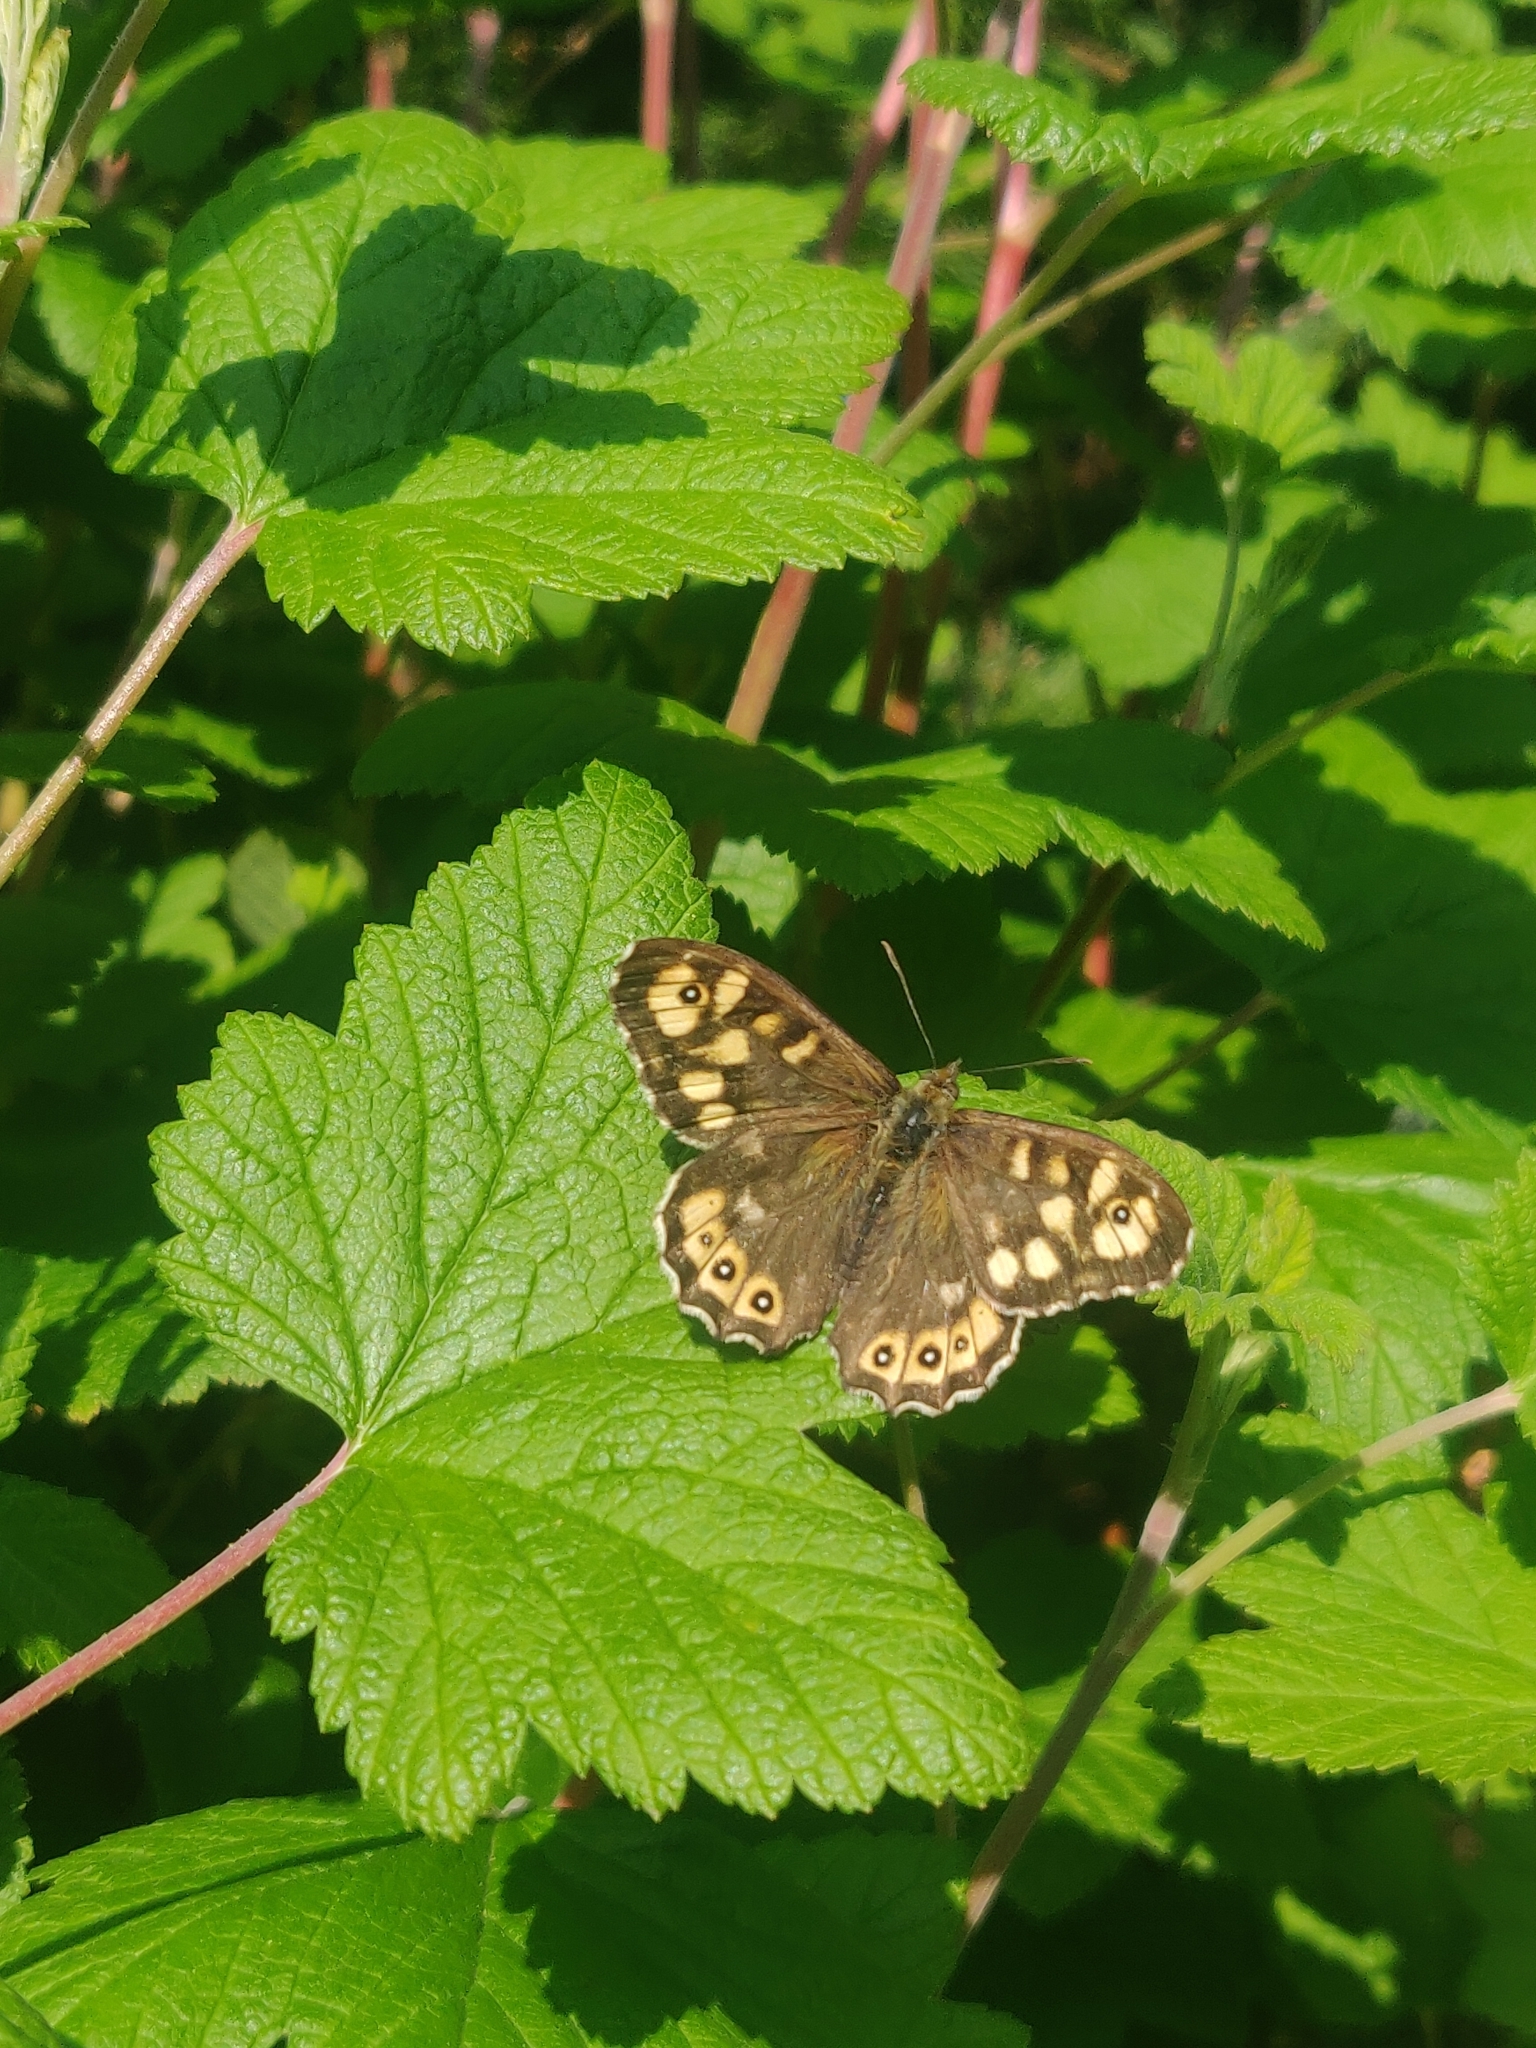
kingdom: Animalia
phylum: Arthropoda
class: Insecta
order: Lepidoptera
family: Nymphalidae
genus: Pararge
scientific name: Pararge aegeria
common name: Speckled wood
